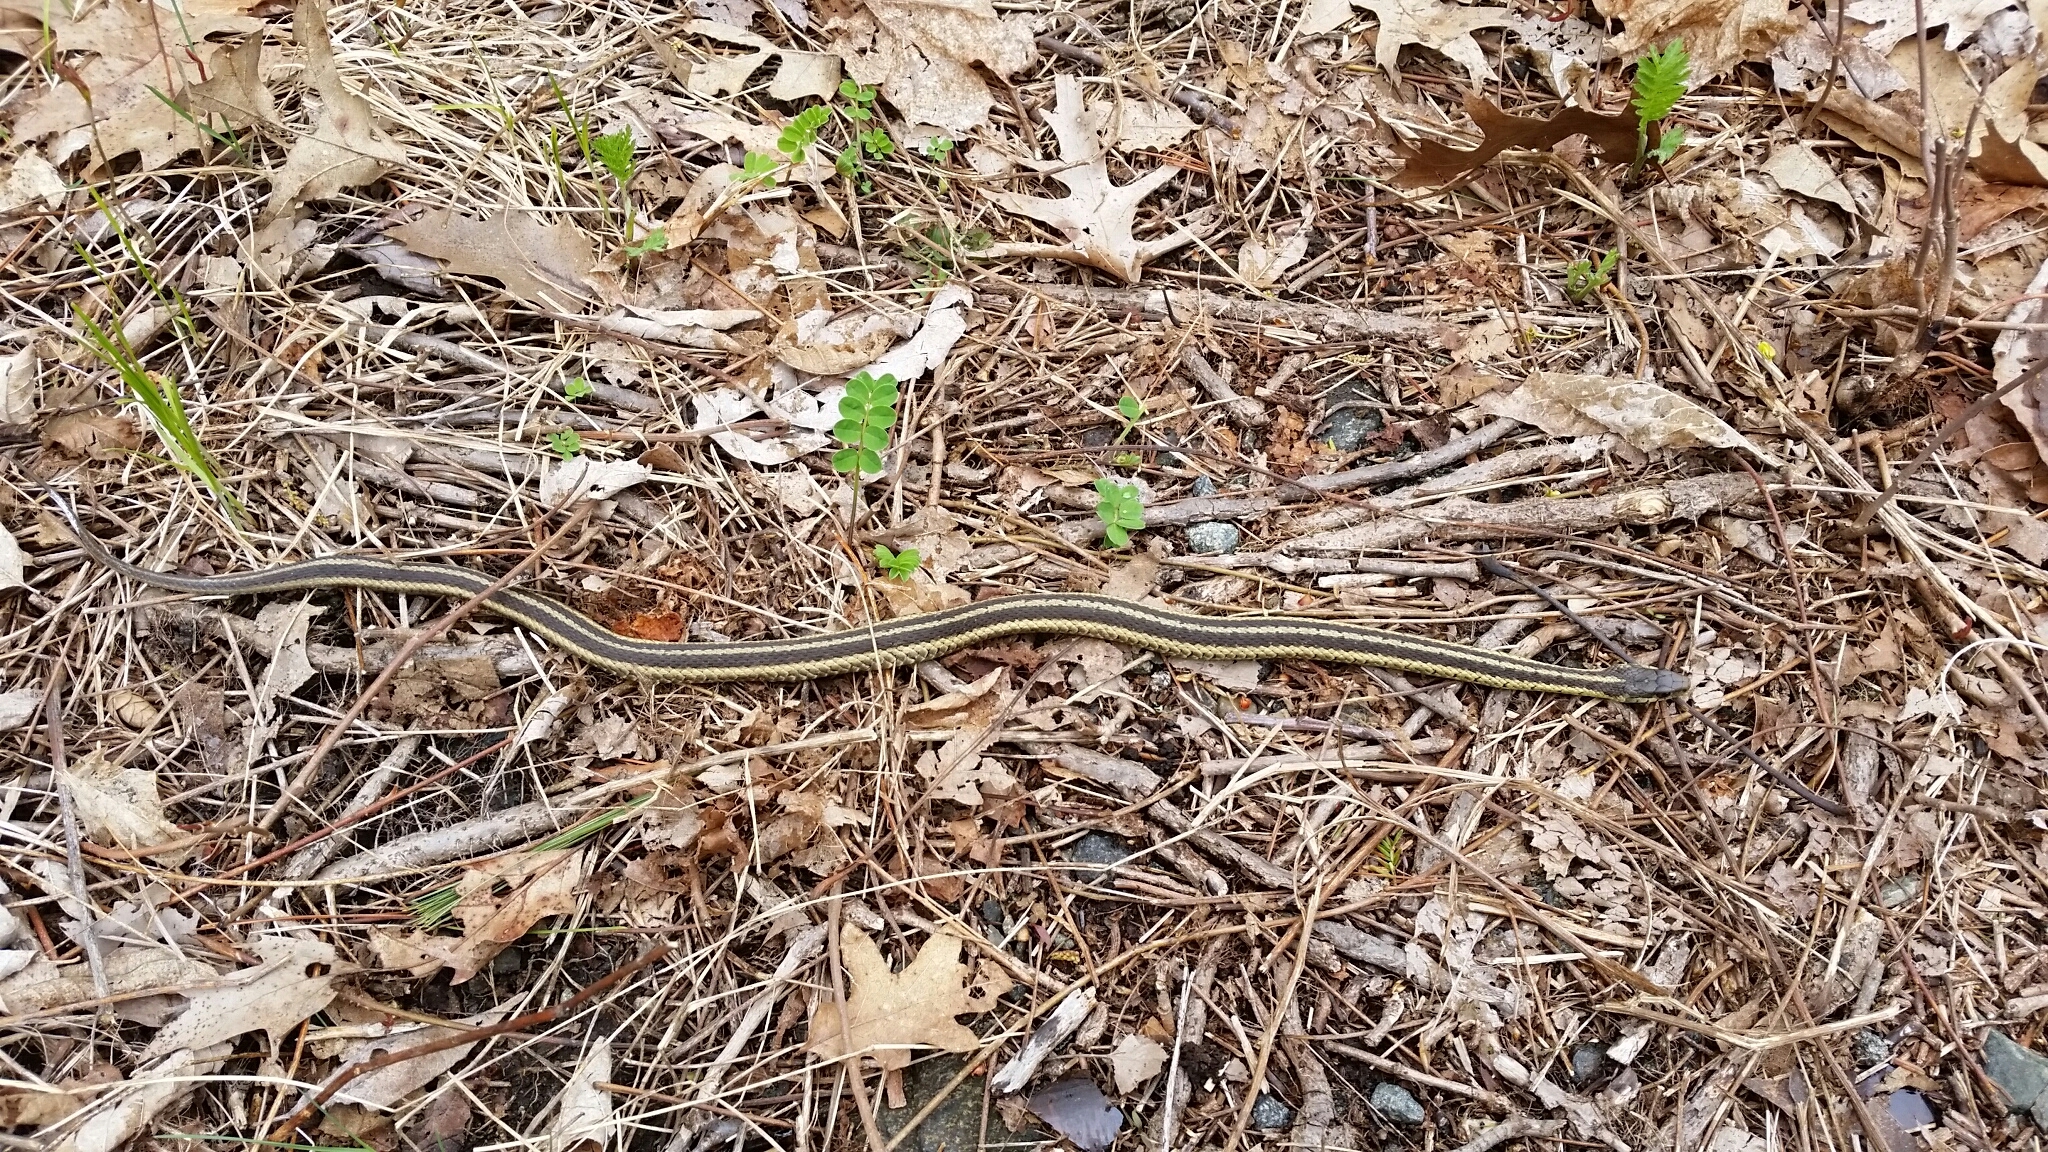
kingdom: Animalia
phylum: Chordata
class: Squamata
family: Colubridae
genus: Thamnophis
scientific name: Thamnophis sirtalis
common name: Common garter snake
